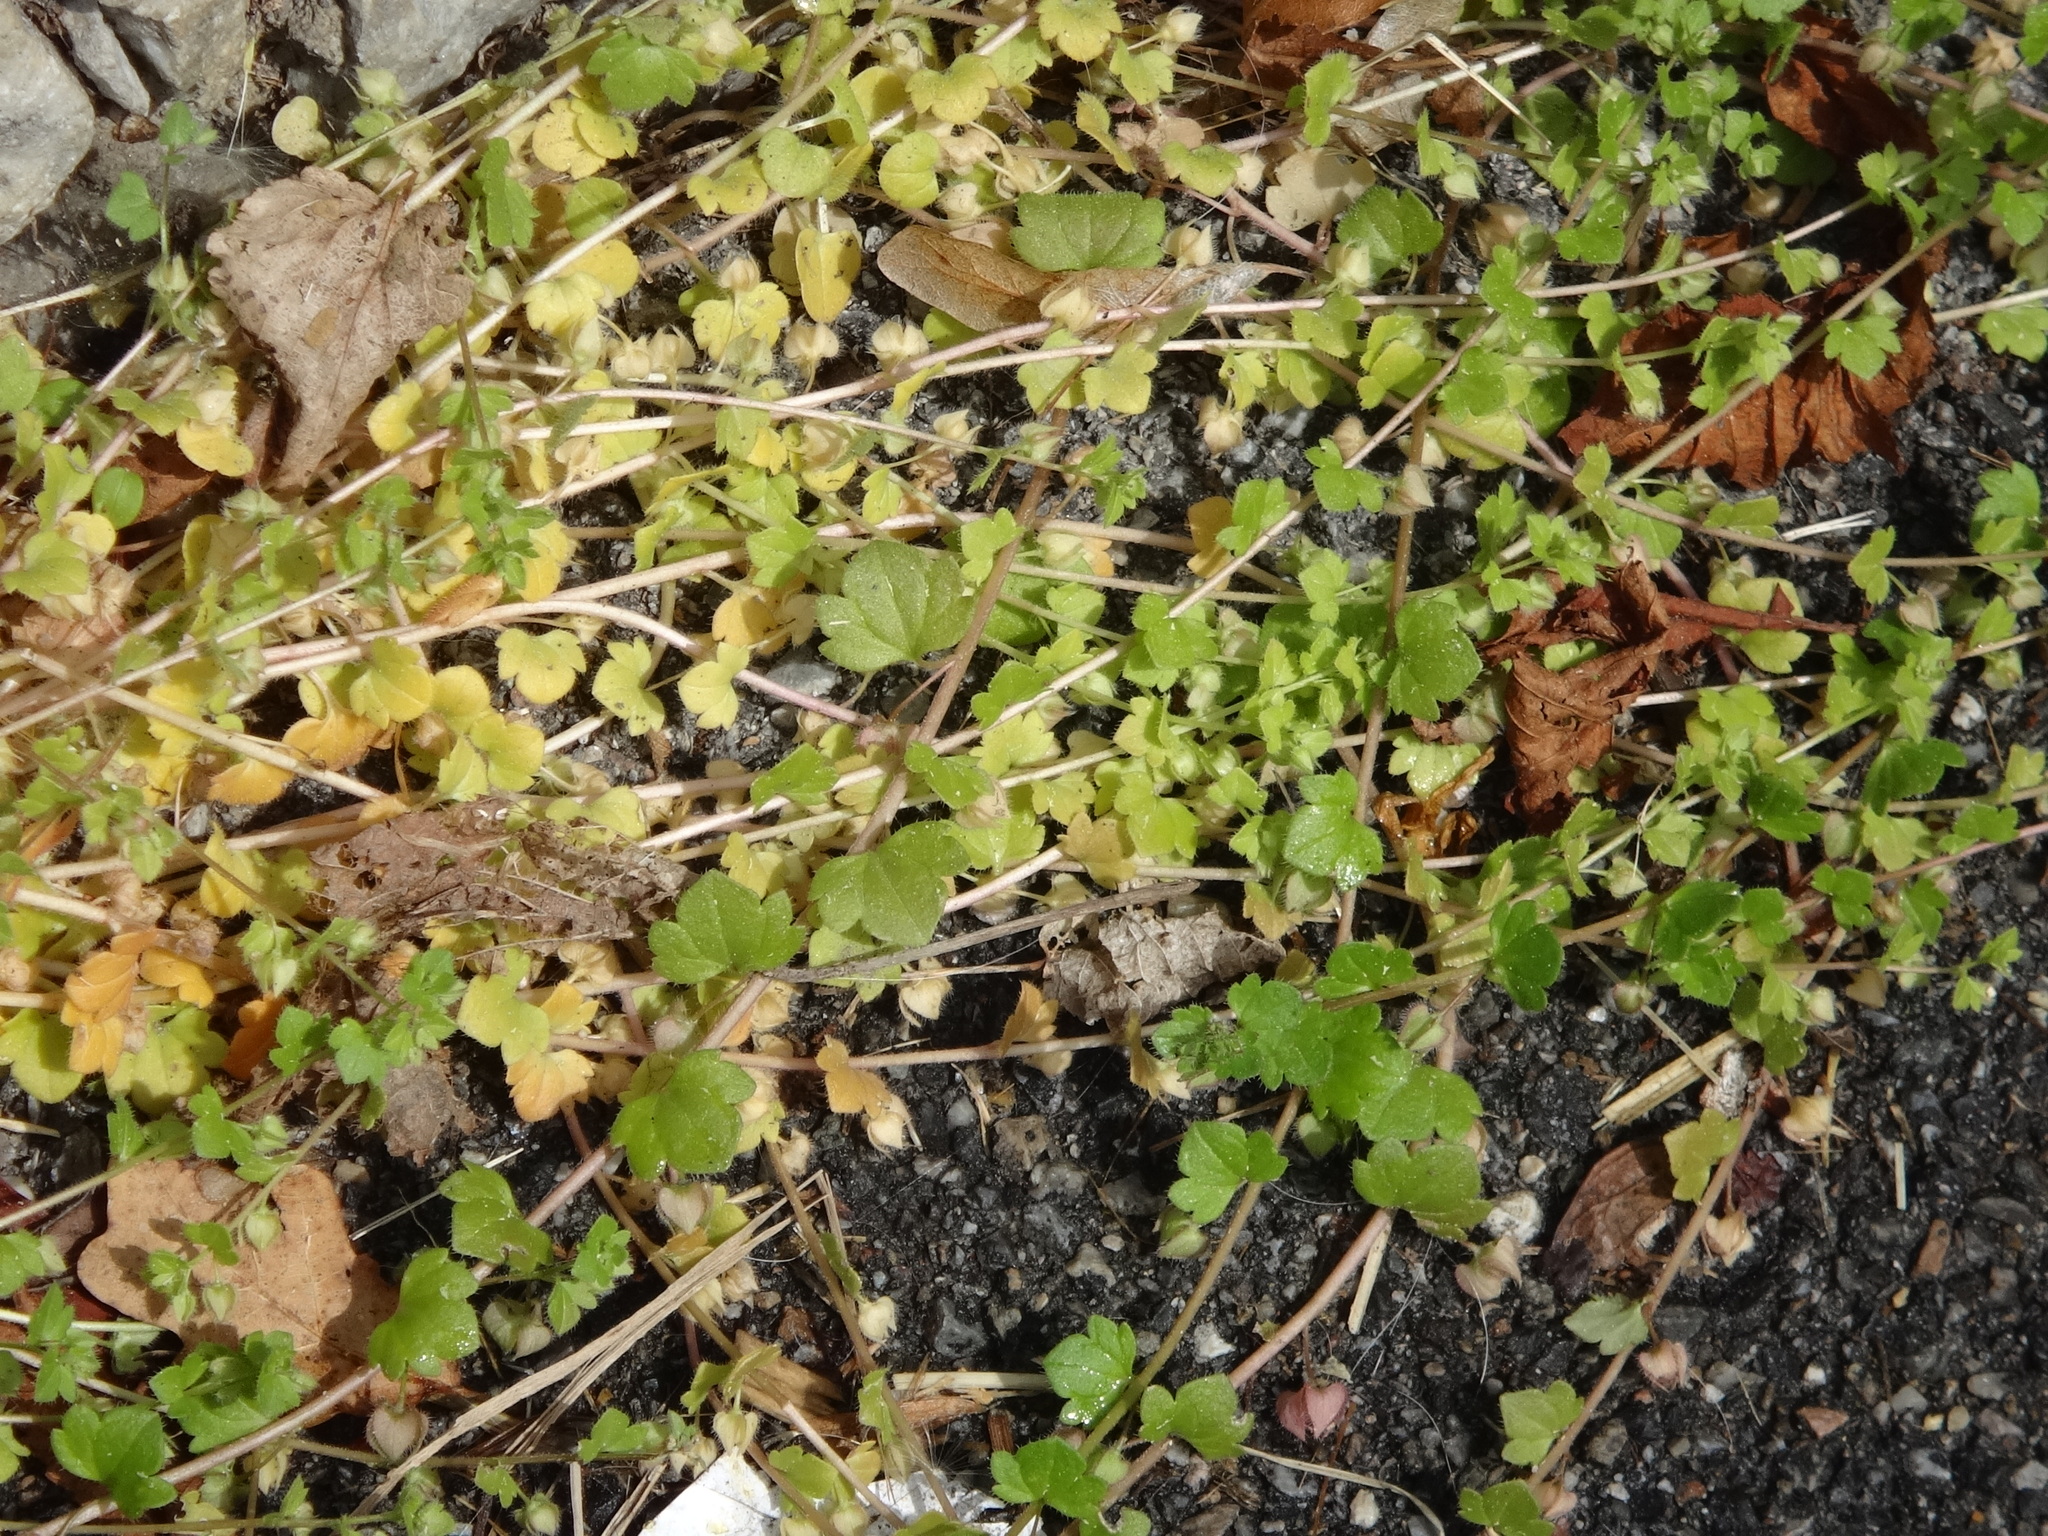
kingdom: Plantae
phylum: Tracheophyta
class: Magnoliopsida
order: Lamiales
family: Plantaginaceae
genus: Veronica
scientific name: Veronica hederifolia
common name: Ivy-leaved speedwell
